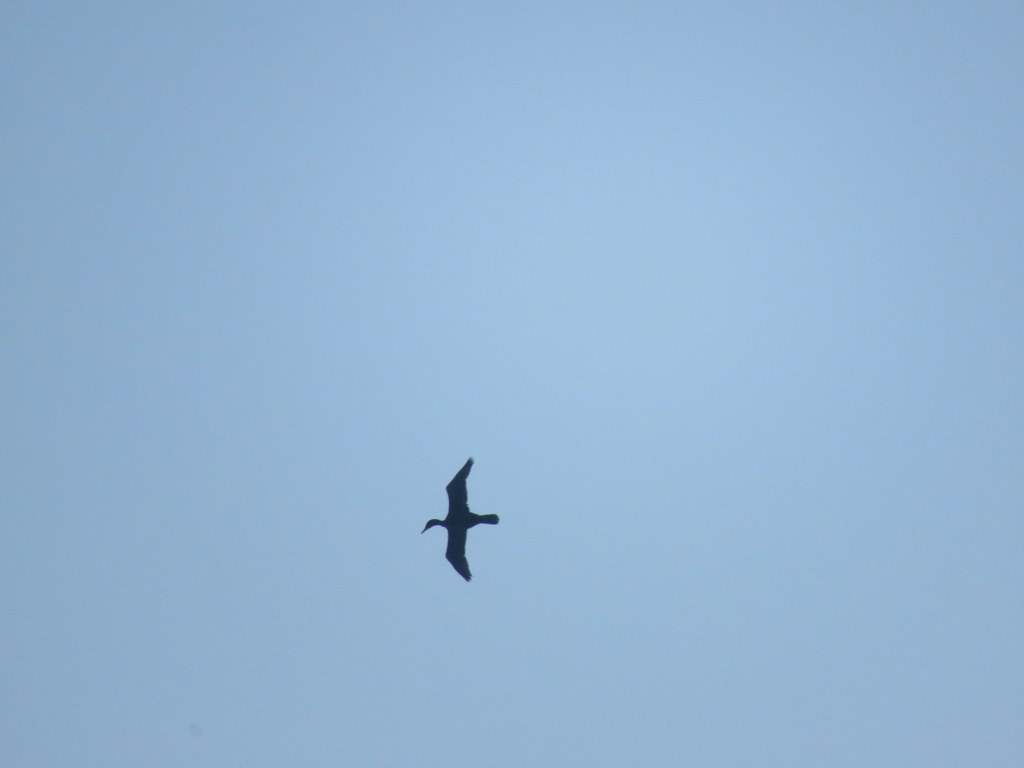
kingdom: Animalia
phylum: Chordata
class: Aves
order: Suliformes
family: Phalacrocoracidae
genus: Phalacrocorax
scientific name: Phalacrocorax brasilianus
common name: Neotropic cormorant
